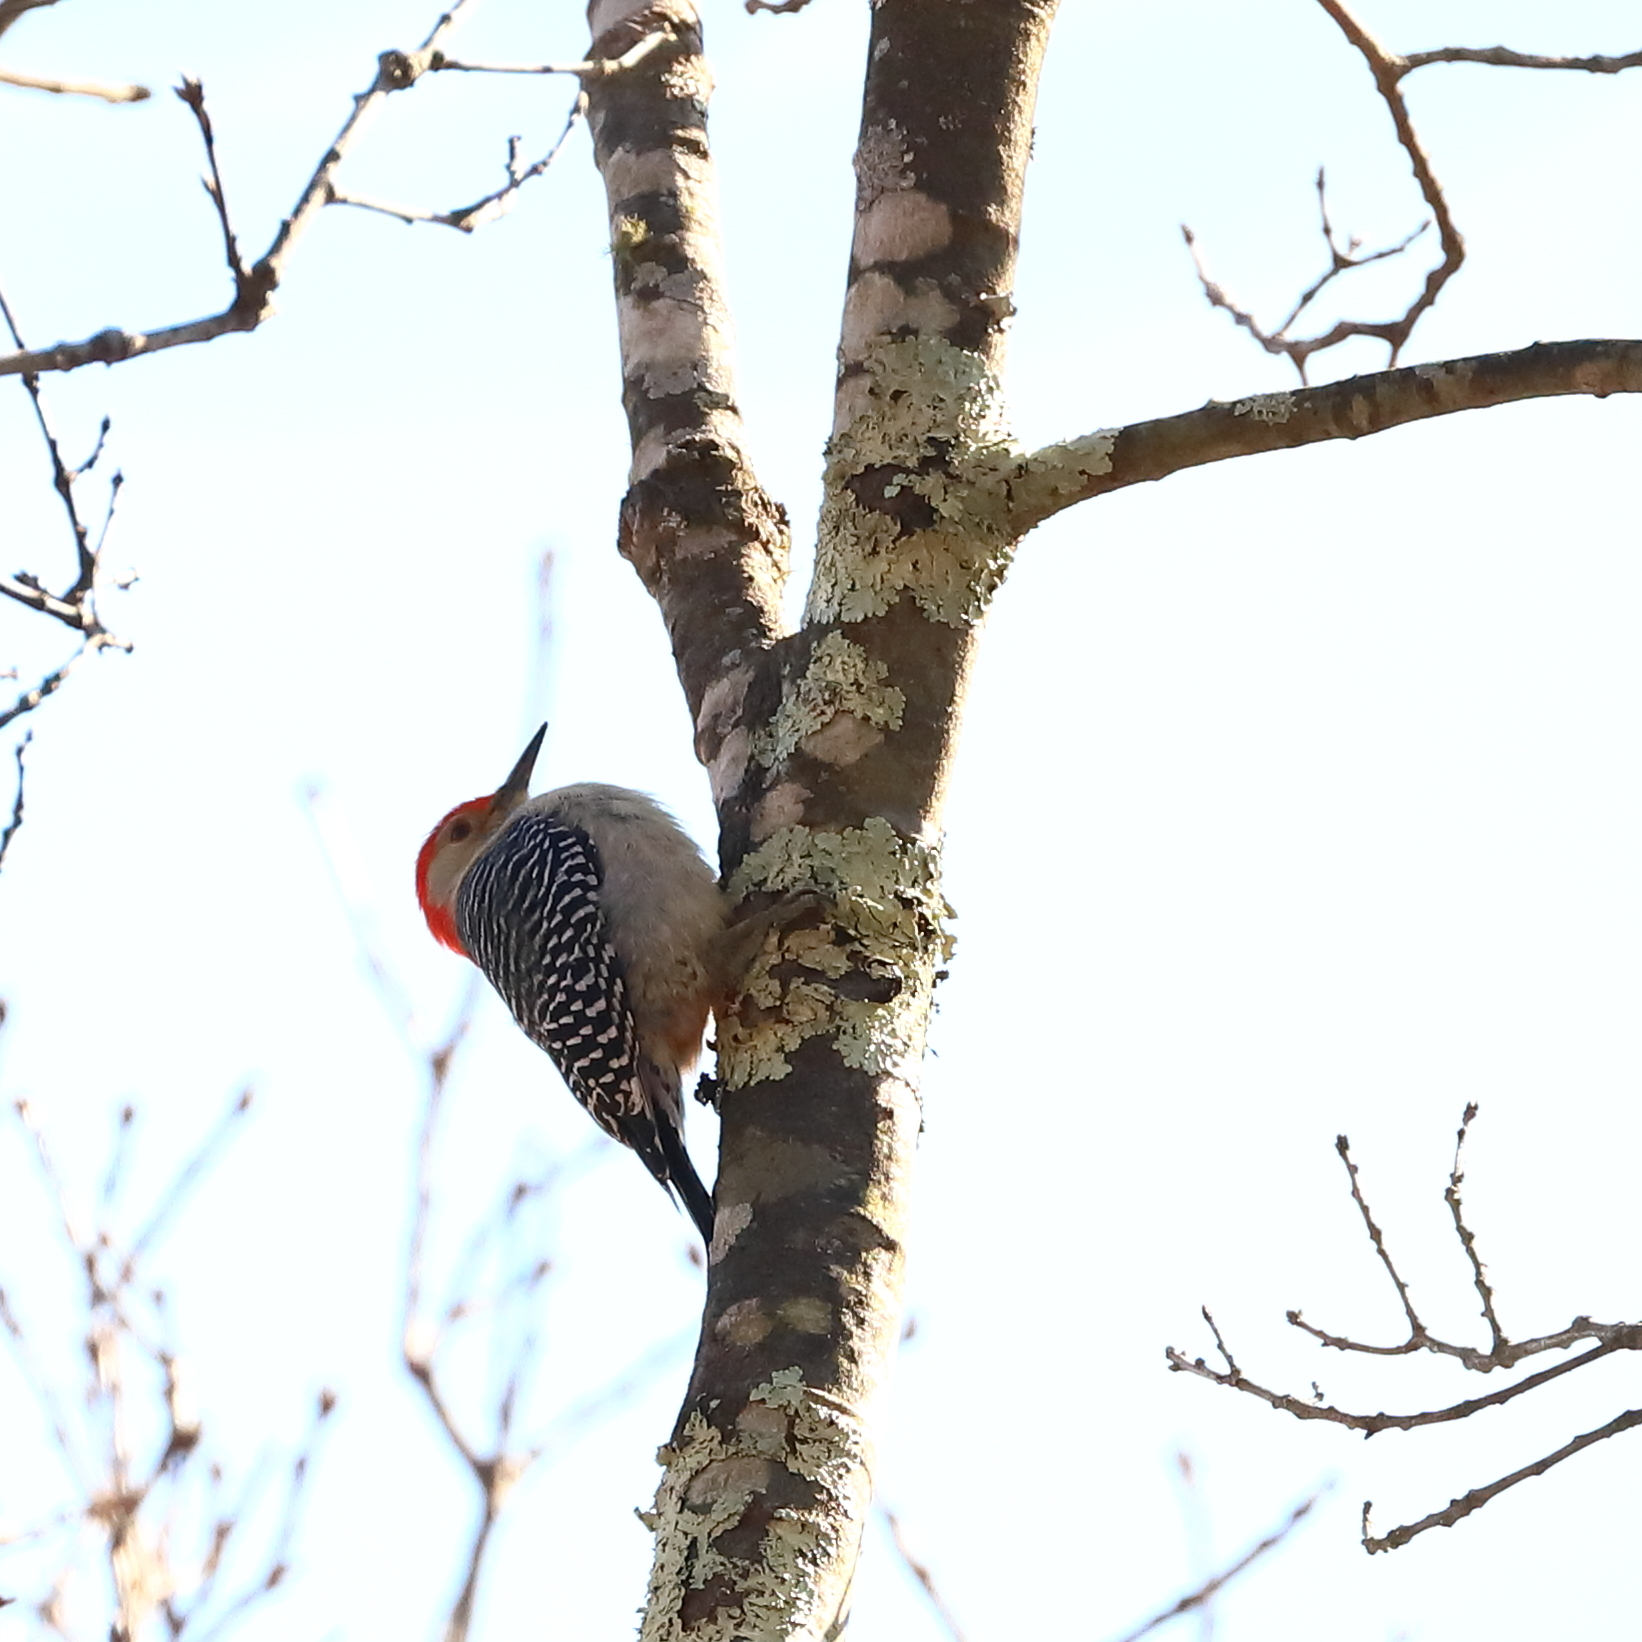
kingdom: Animalia
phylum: Chordata
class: Aves
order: Piciformes
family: Picidae
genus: Melanerpes
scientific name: Melanerpes carolinus
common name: Red-bellied woodpecker
